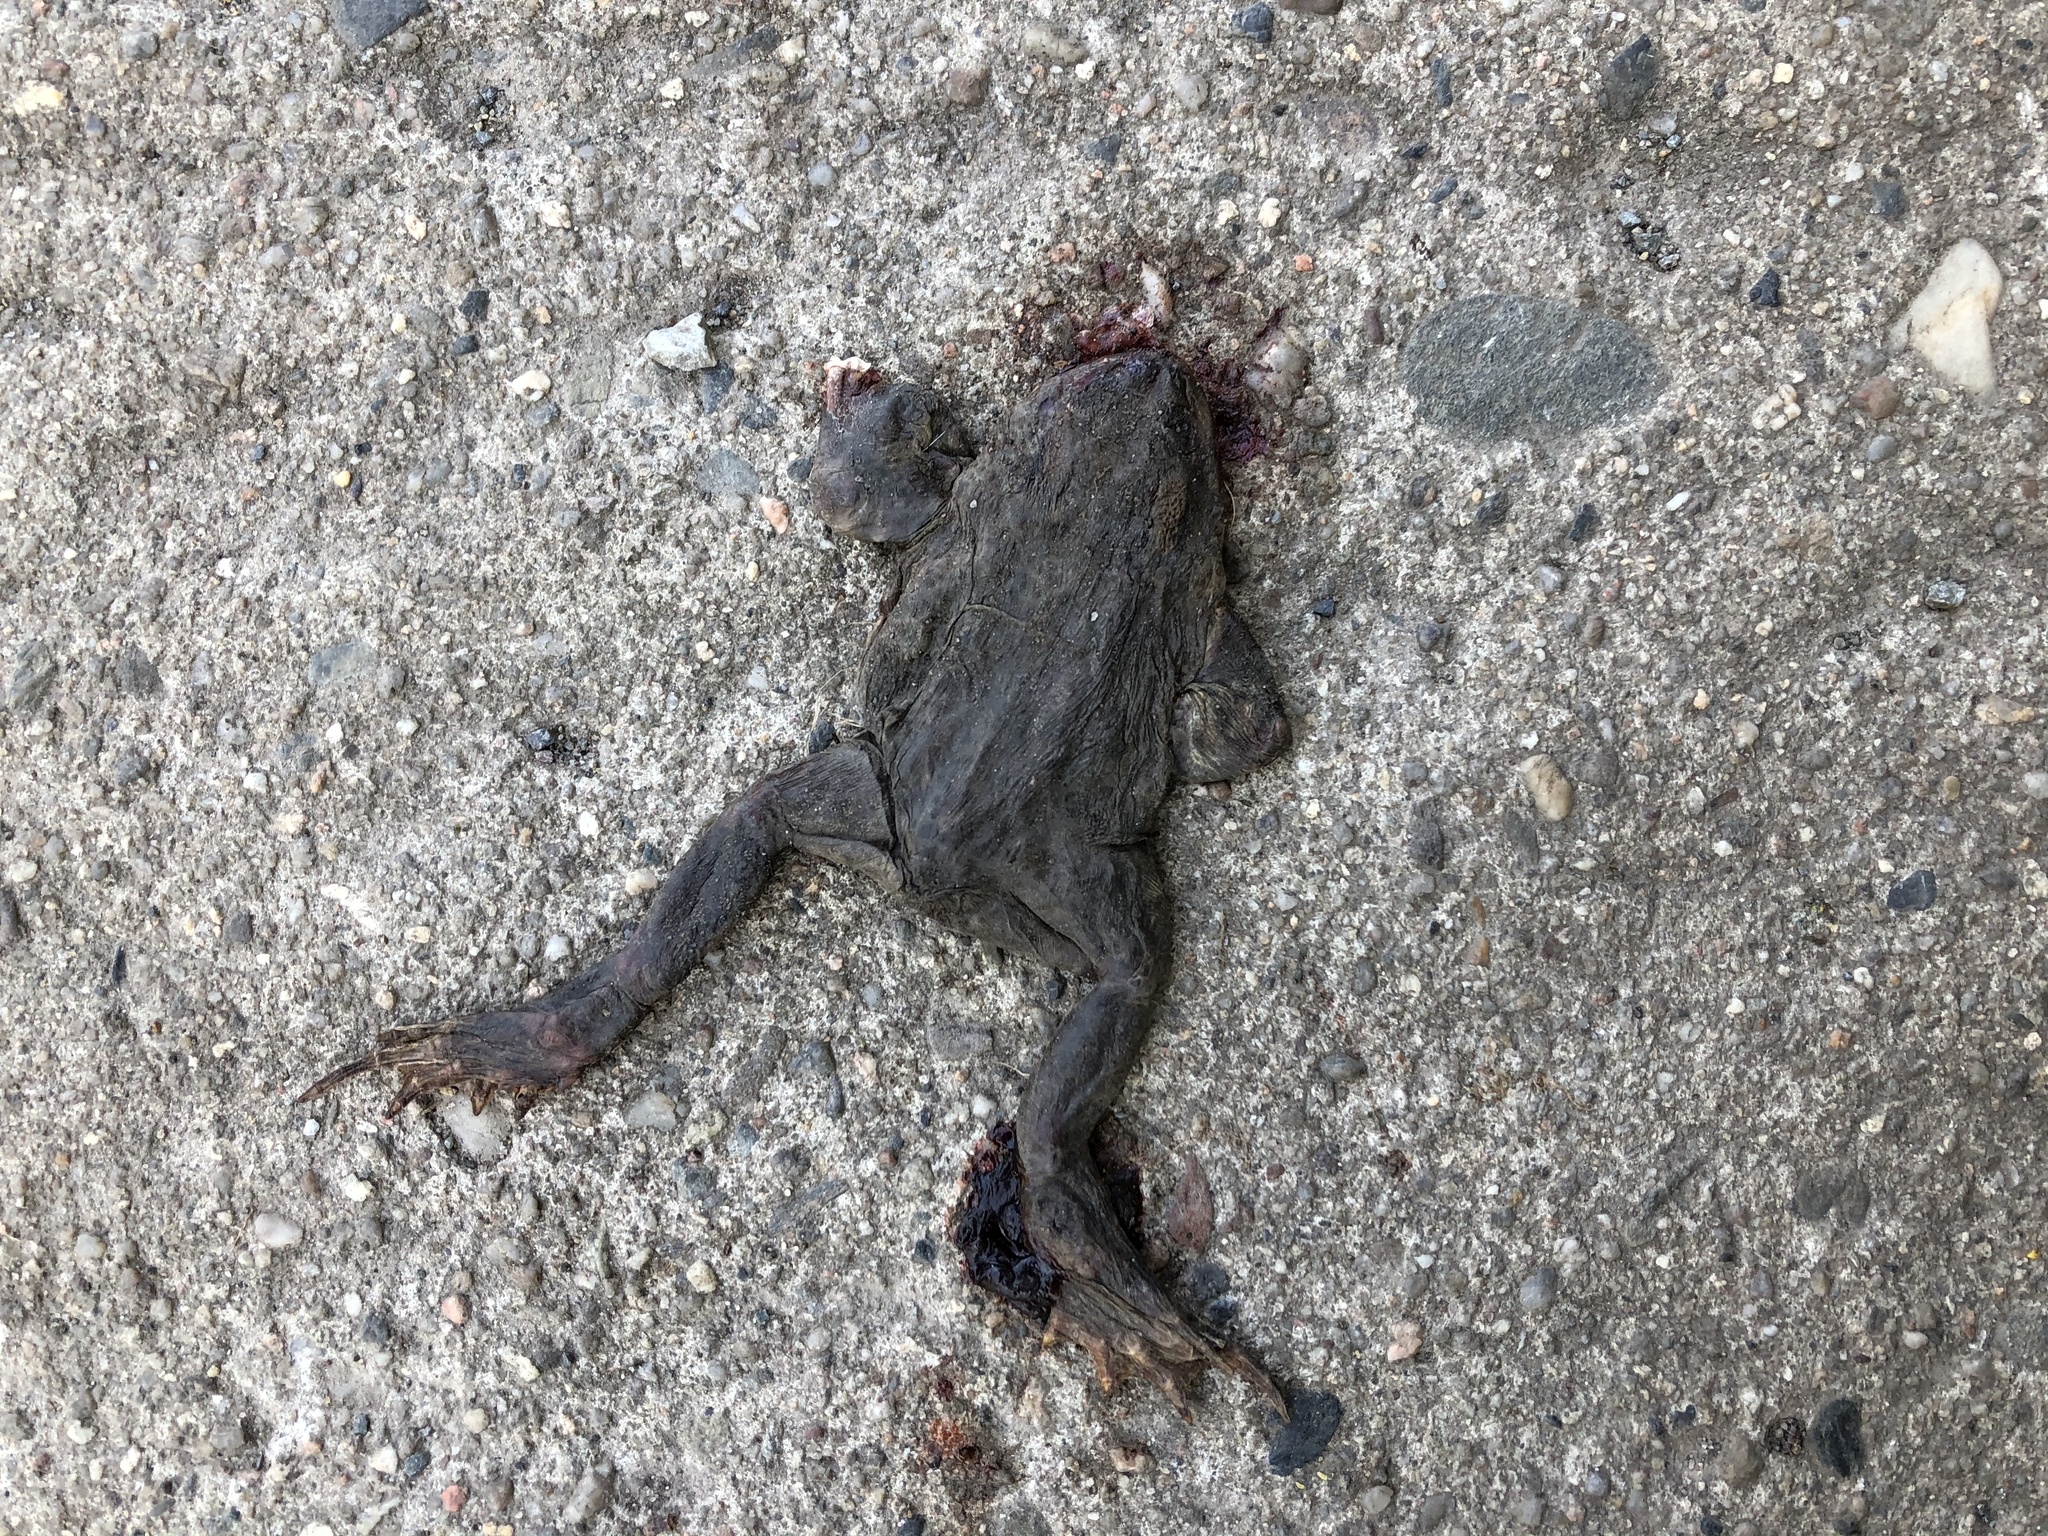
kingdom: Animalia
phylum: Chordata
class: Amphibia
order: Anura
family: Bufonidae
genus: Bufo
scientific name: Bufo bufo
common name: Common toad
